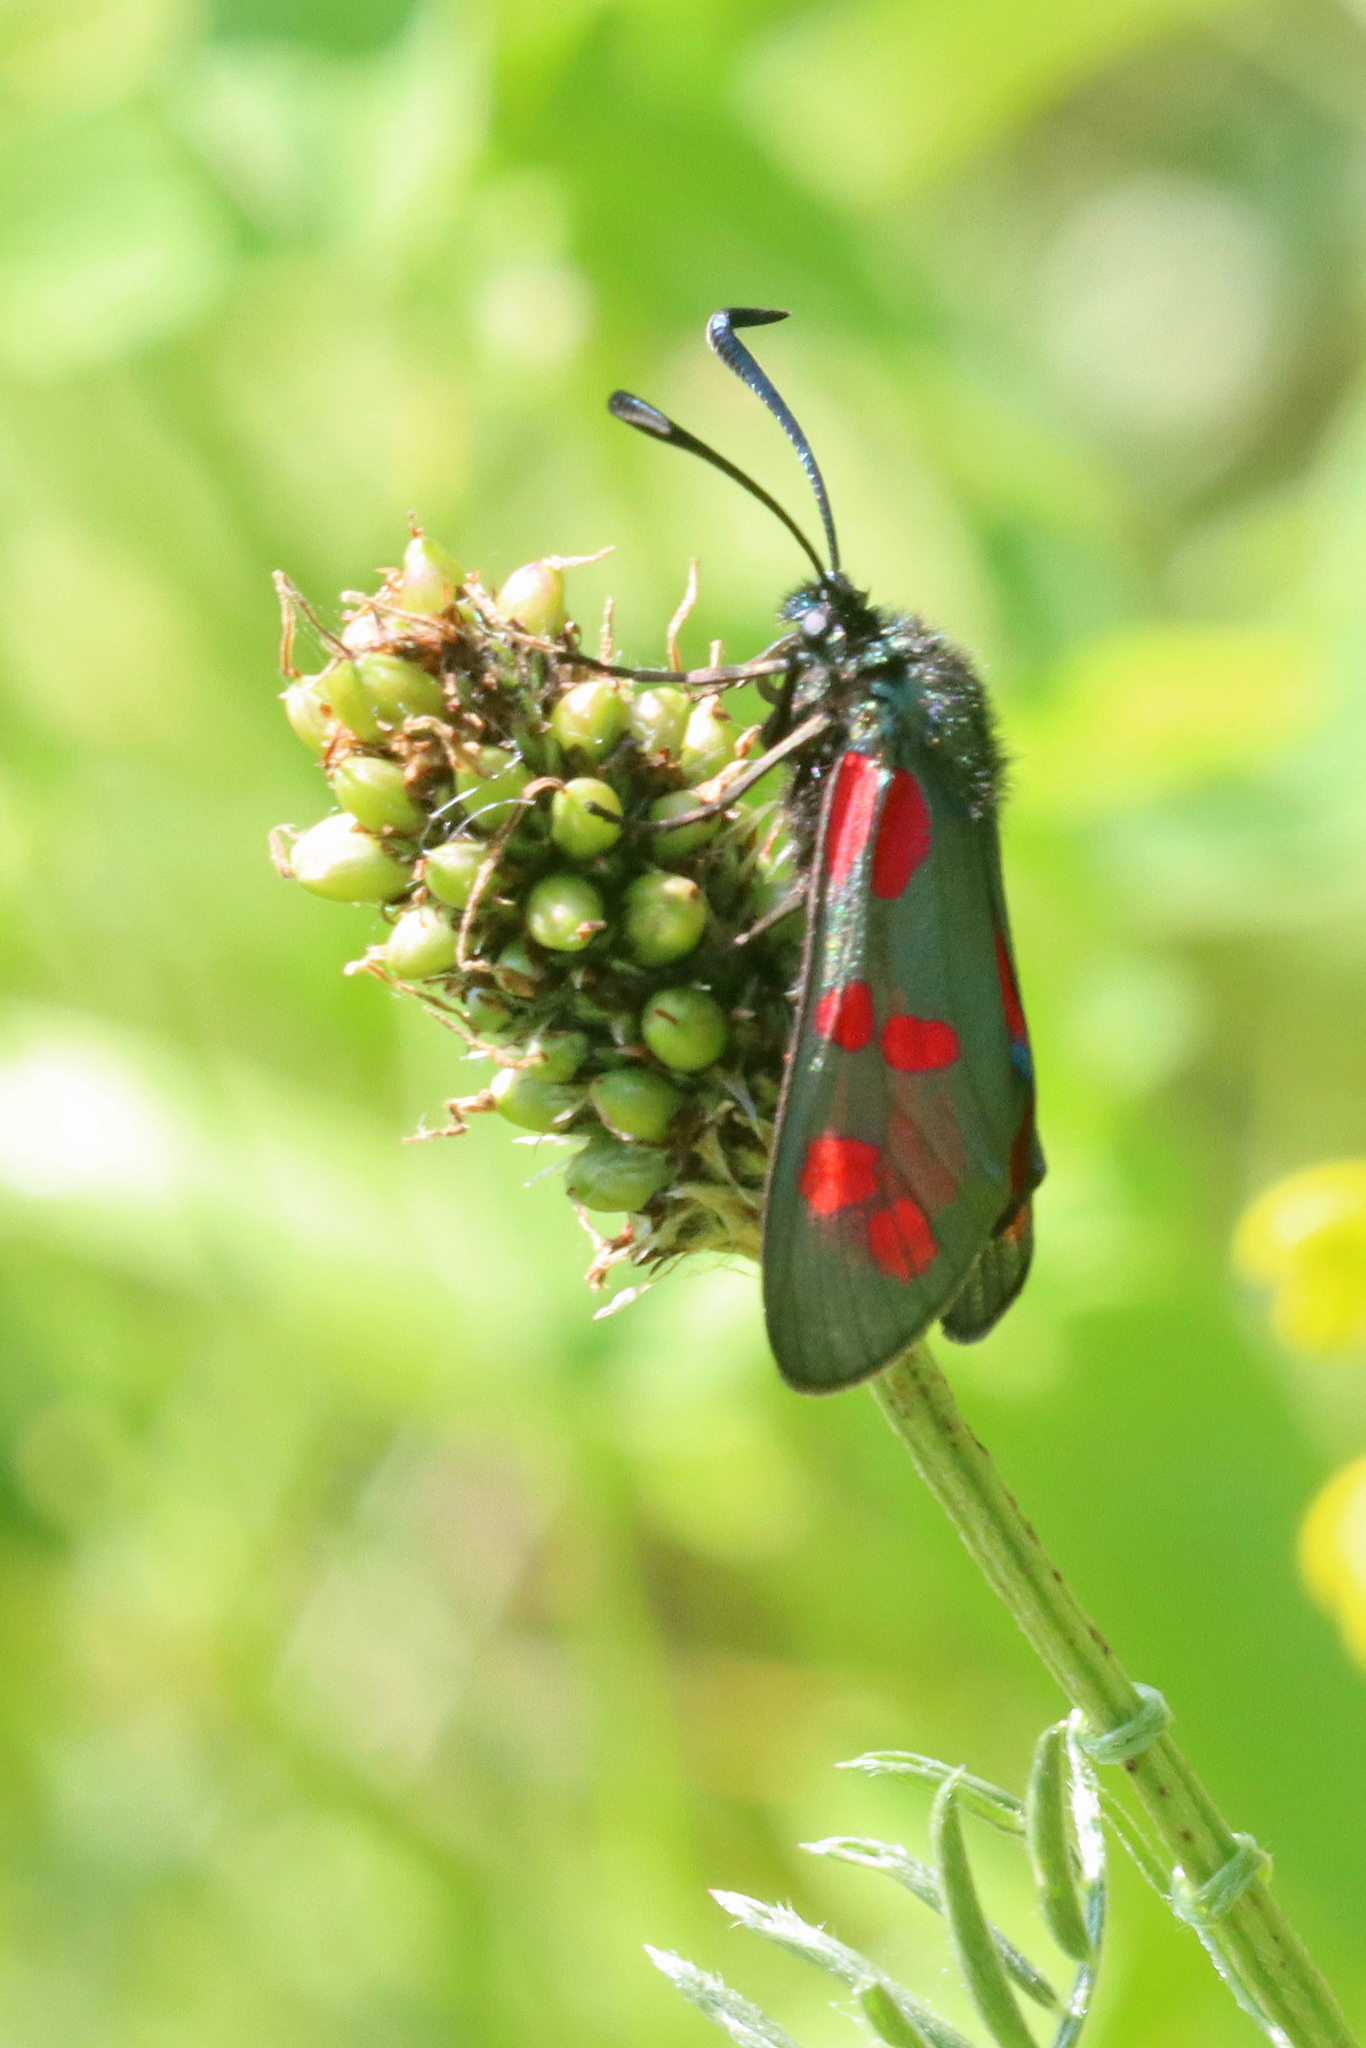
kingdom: Animalia
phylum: Arthropoda
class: Insecta
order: Lepidoptera
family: Zygaenidae
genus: Zygaena
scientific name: Zygaena filipendulae
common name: Six-spot burnet
